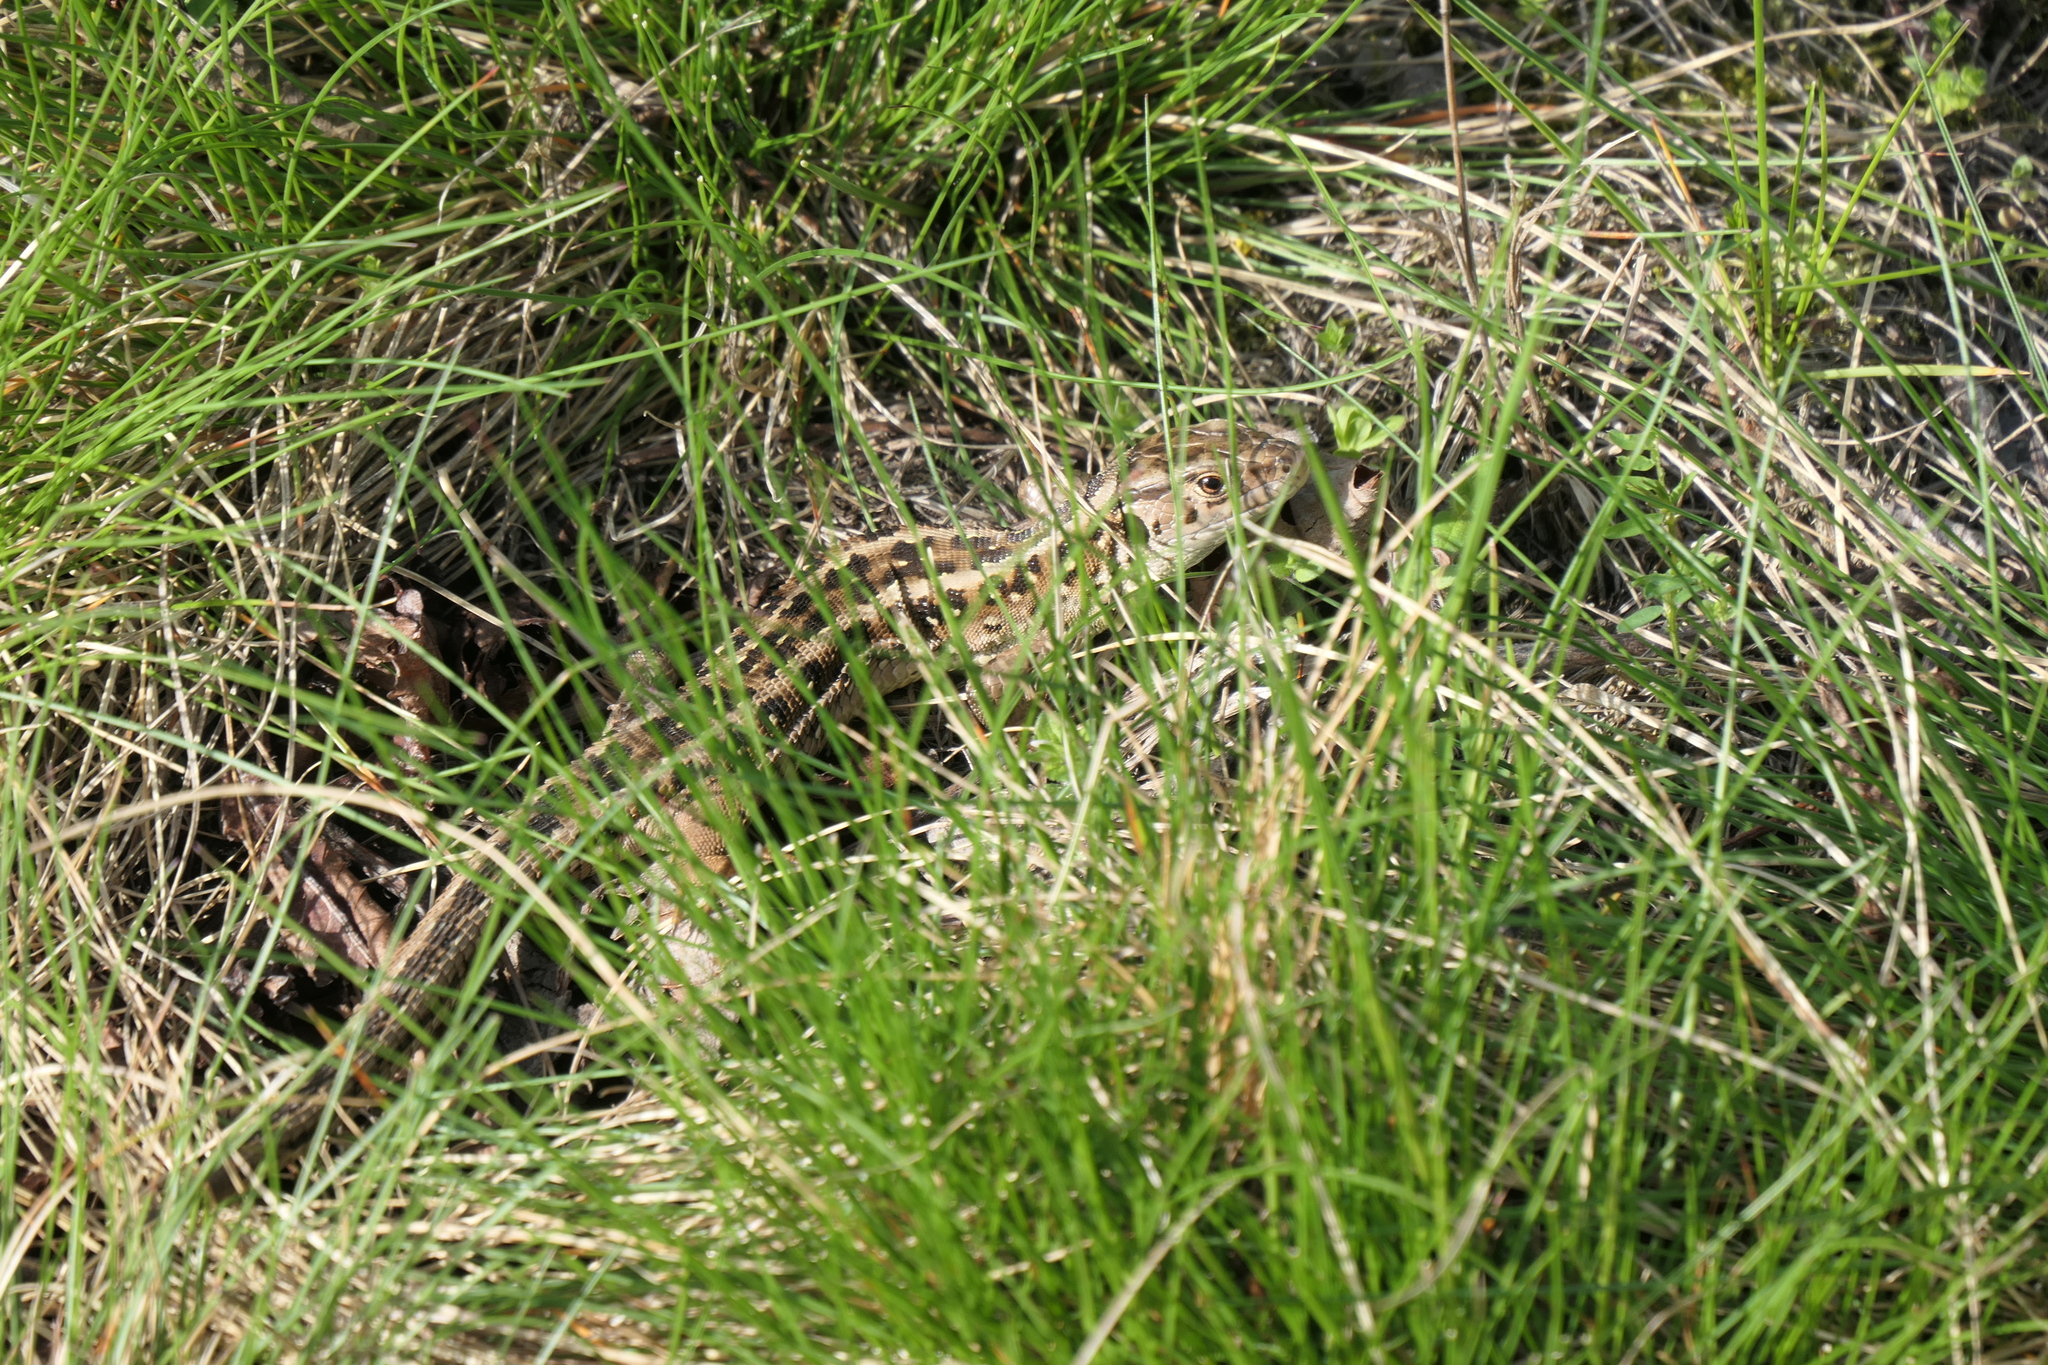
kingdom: Animalia
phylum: Chordata
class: Squamata
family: Lacertidae
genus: Lacerta
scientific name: Lacerta agilis
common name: Sand lizard
